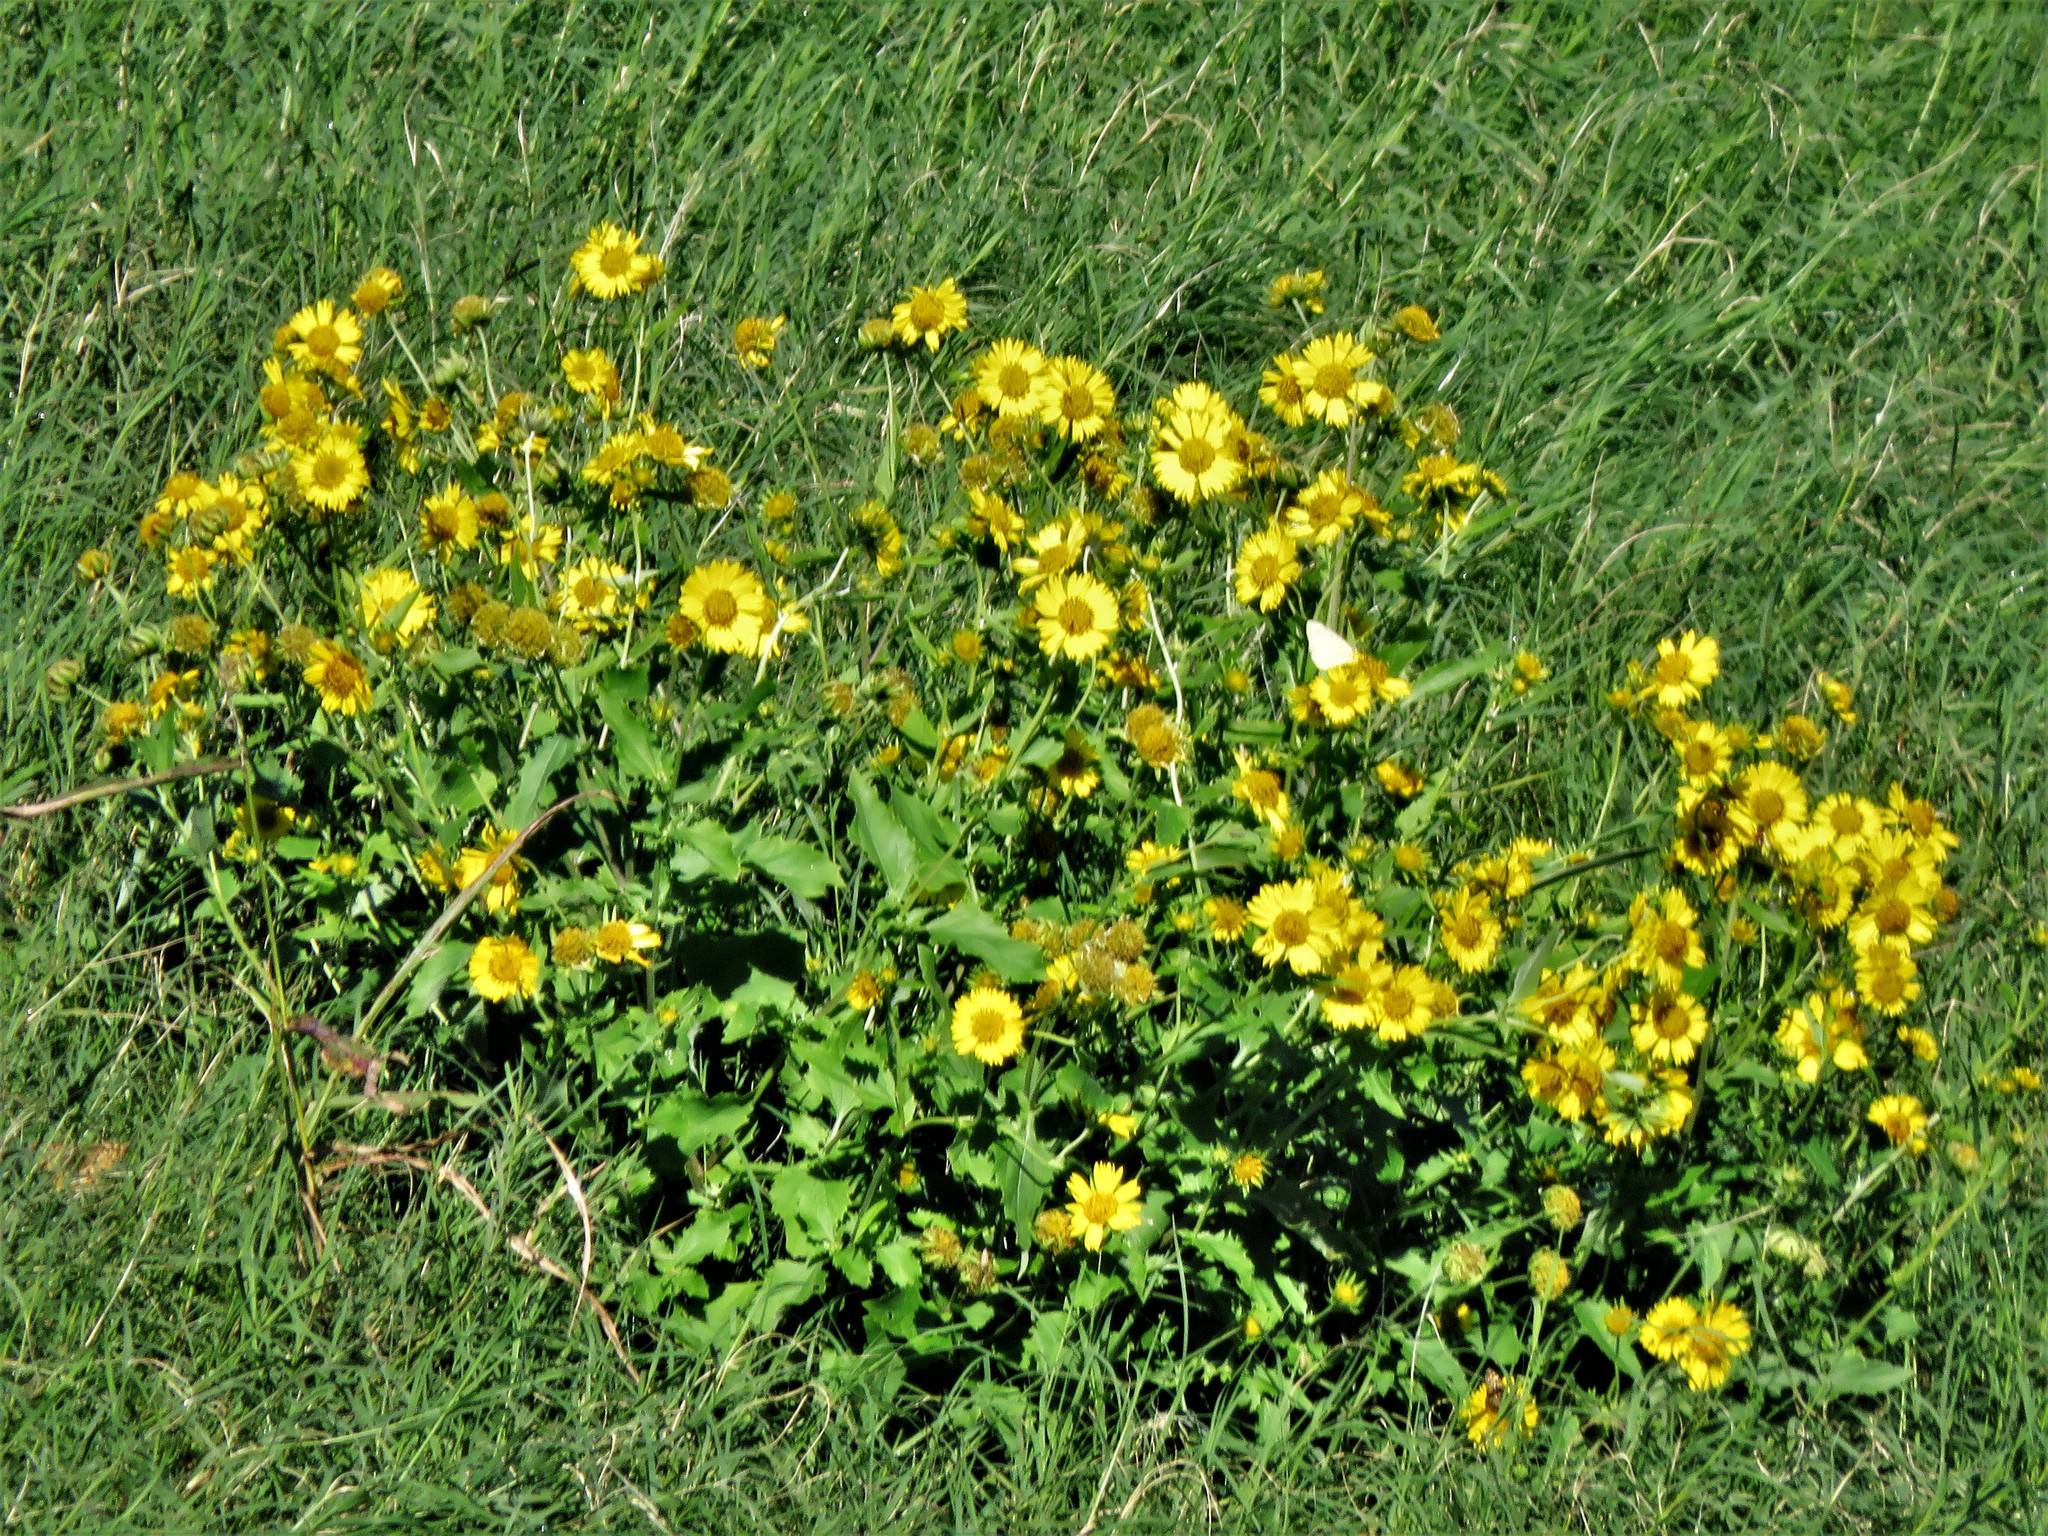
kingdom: Plantae
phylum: Tracheophyta
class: Magnoliopsida
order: Asterales
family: Asteraceae
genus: Verbesina
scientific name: Verbesina encelioides
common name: Golden crownbeard
